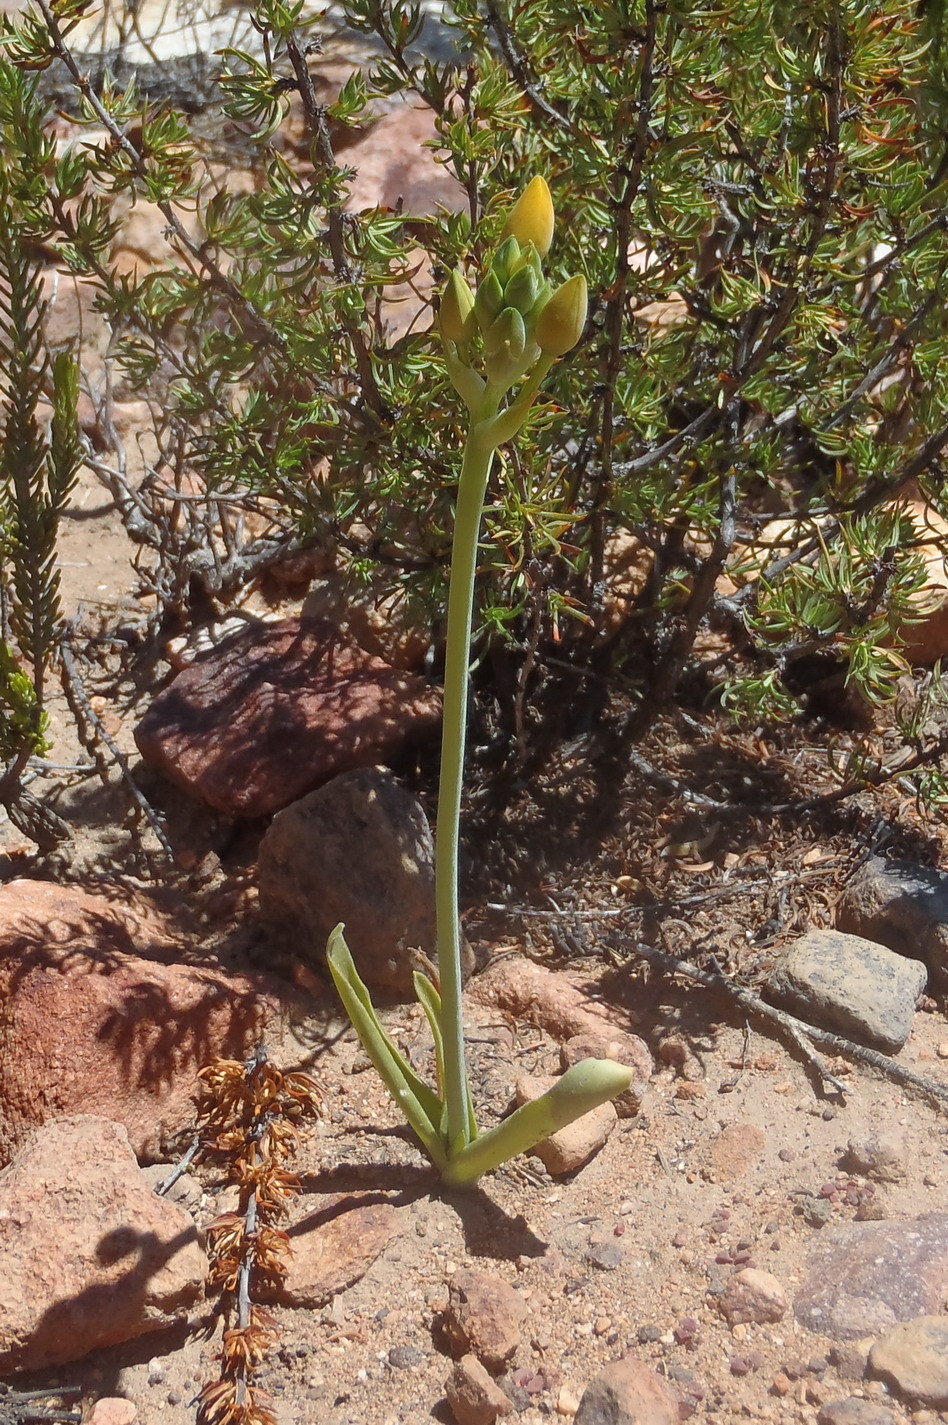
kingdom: Plantae
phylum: Tracheophyta
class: Liliopsida
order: Asparagales
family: Asparagaceae
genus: Ornithogalum
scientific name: Ornithogalum dubium
